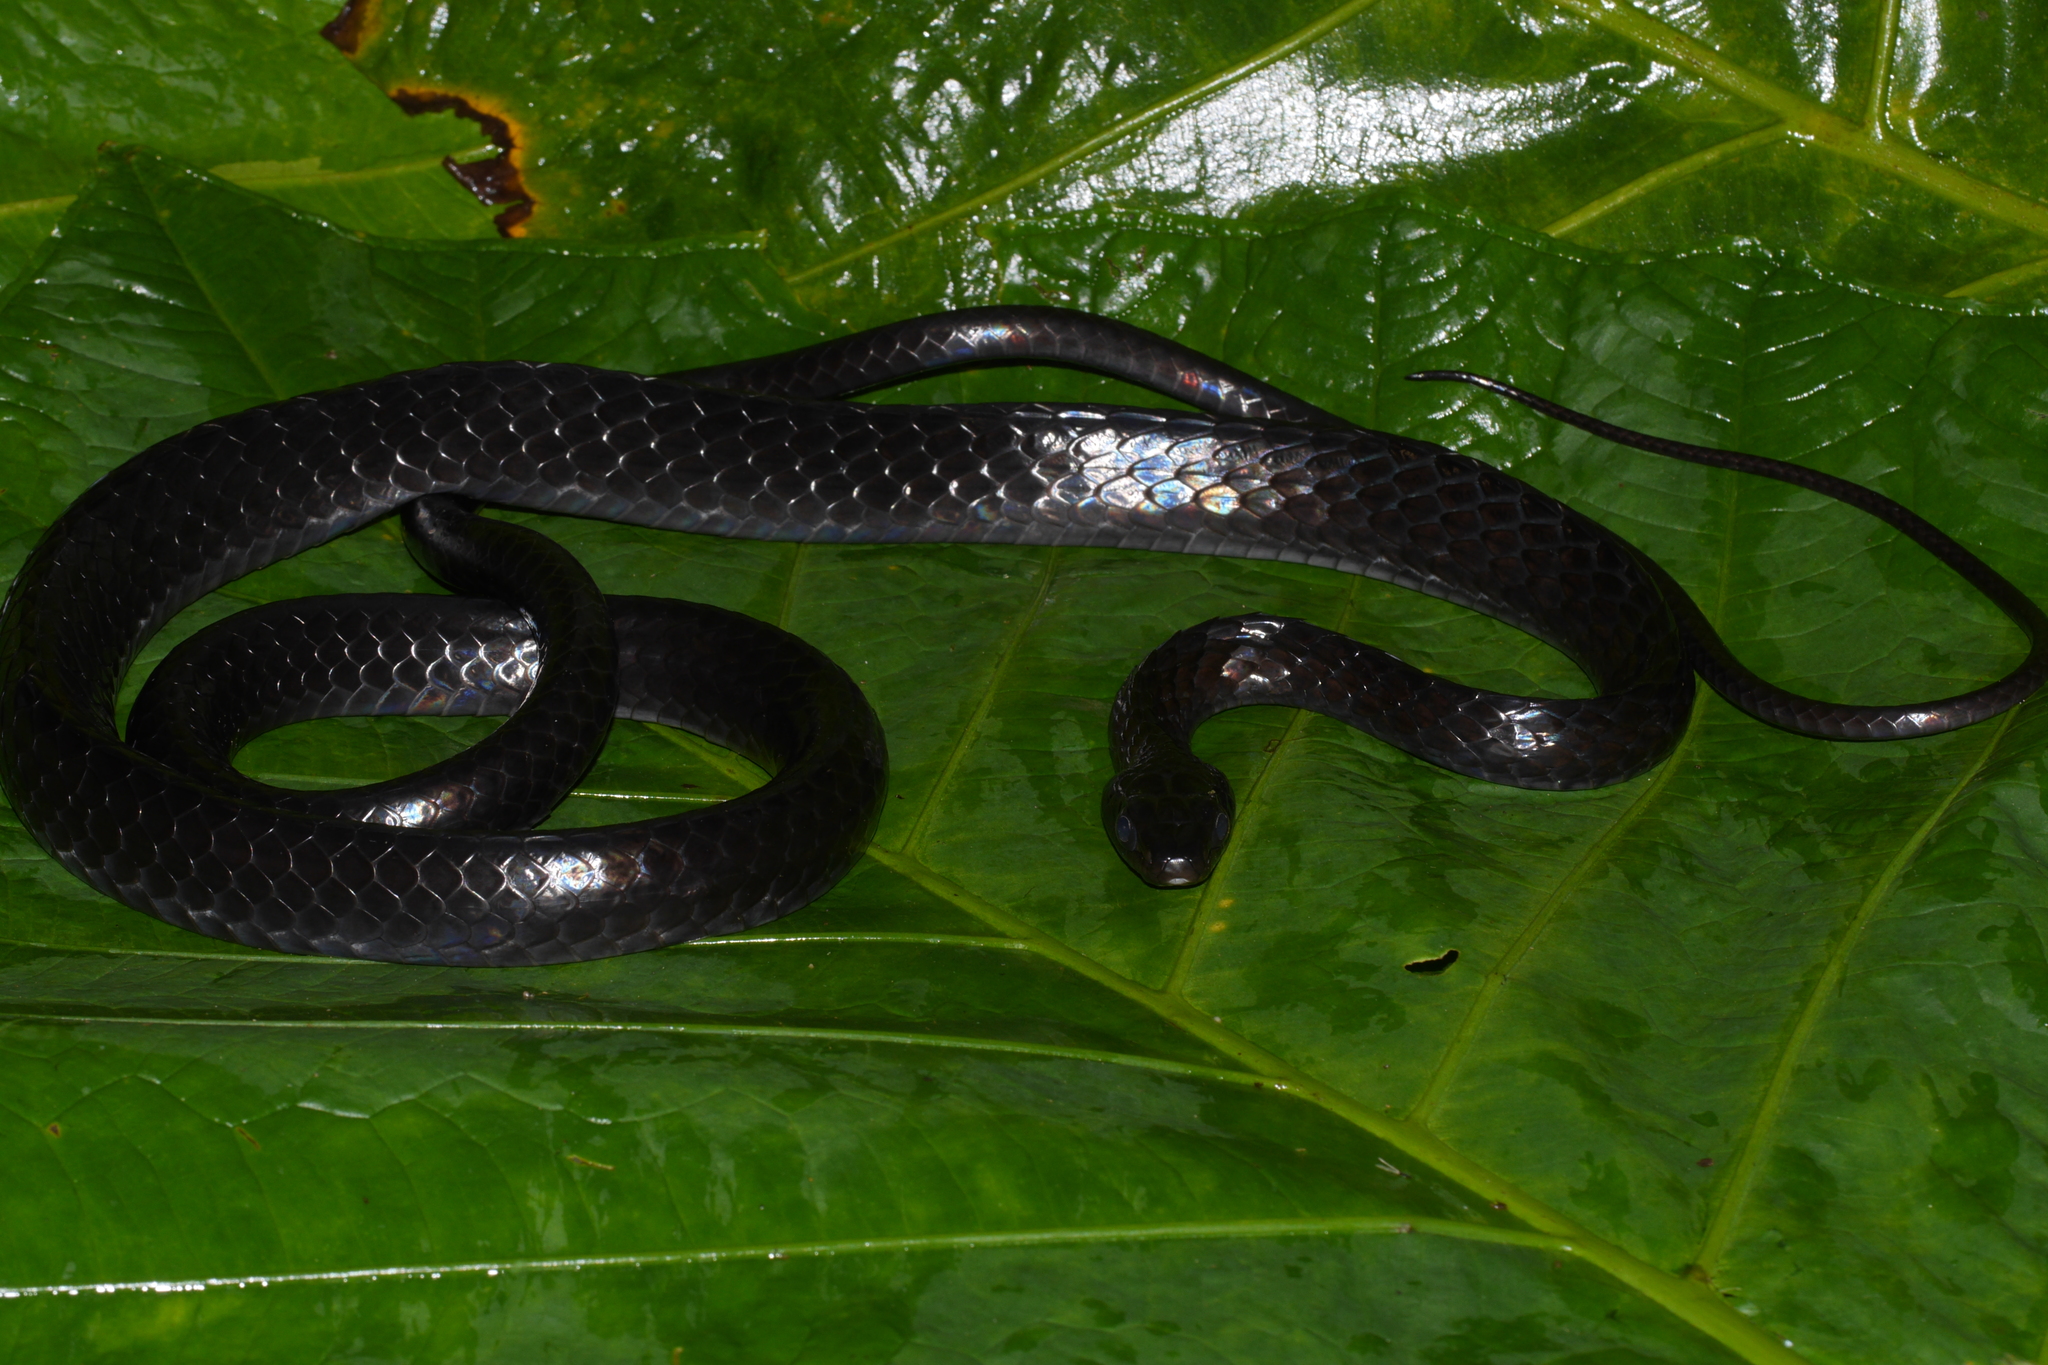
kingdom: Animalia
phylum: Chordata
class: Squamata
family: Colubridae
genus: Chironius
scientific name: Chironius grandisquamis
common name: Ecuador sipo
